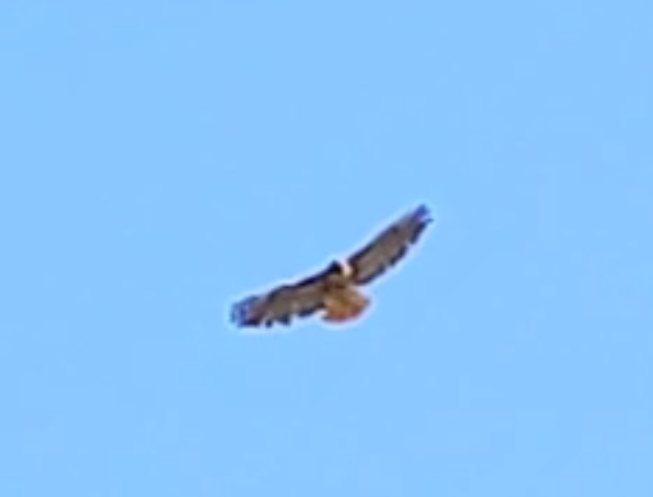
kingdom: Animalia
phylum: Chordata
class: Aves
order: Accipitriformes
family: Accipitridae
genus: Buteo
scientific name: Buteo jamaicensis
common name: Red-tailed hawk
